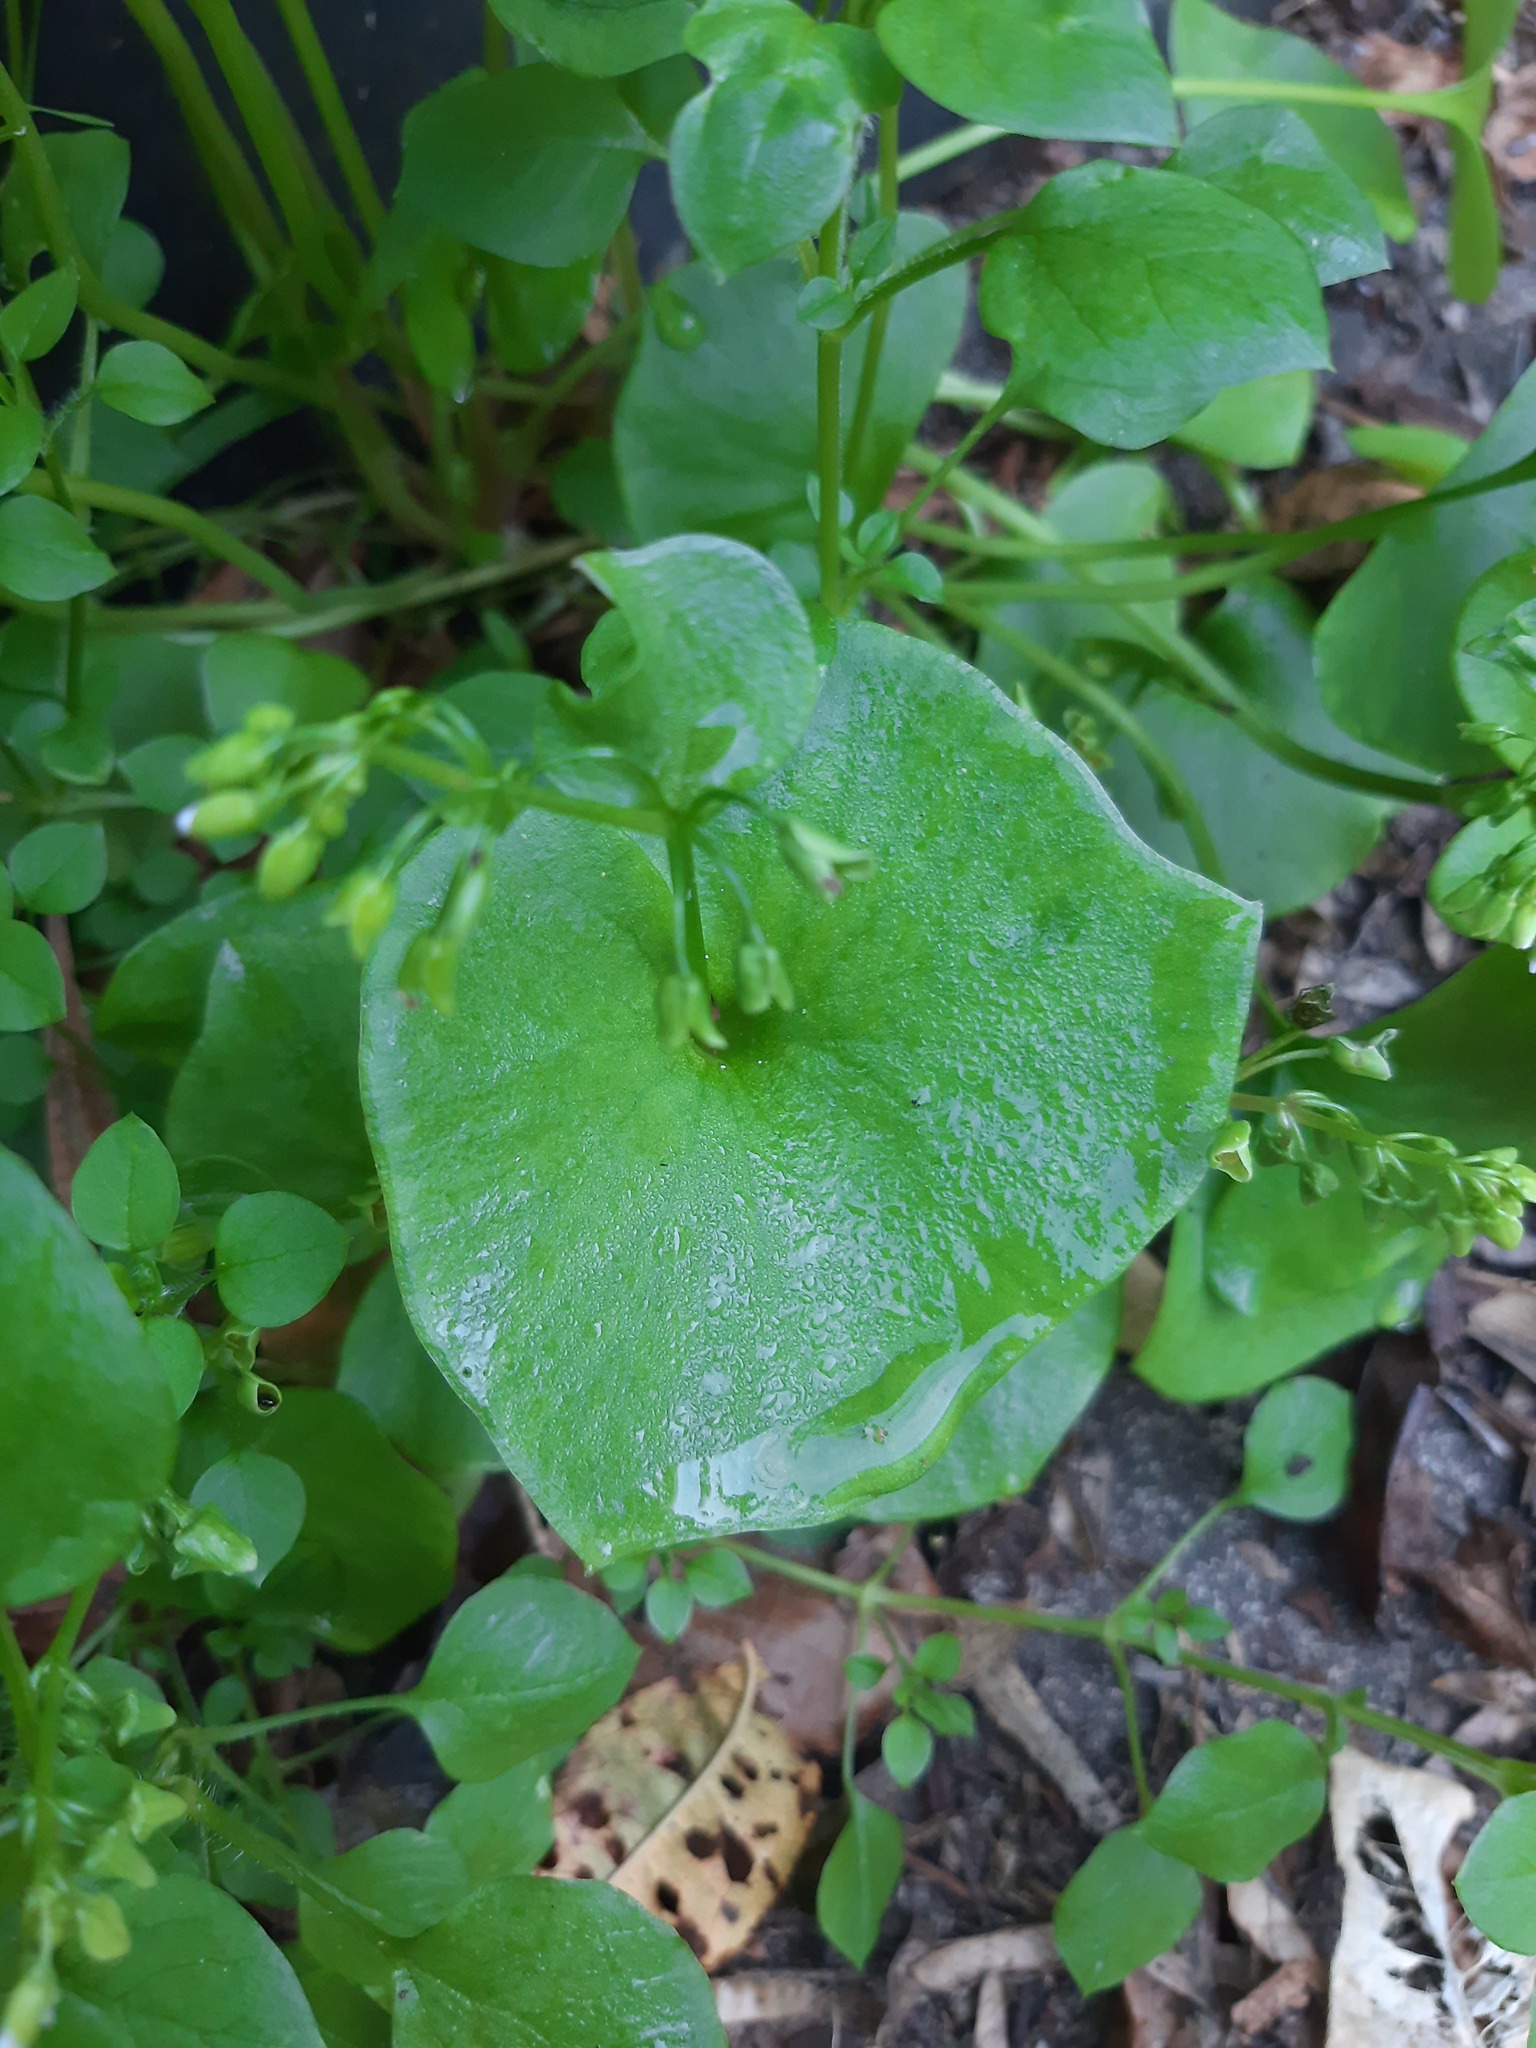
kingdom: Plantae
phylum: Tracheophyta
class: Magnoliopsida
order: Caryophyllales
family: Montiaceae
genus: Claytonia
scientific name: Claytonia perfoliata
